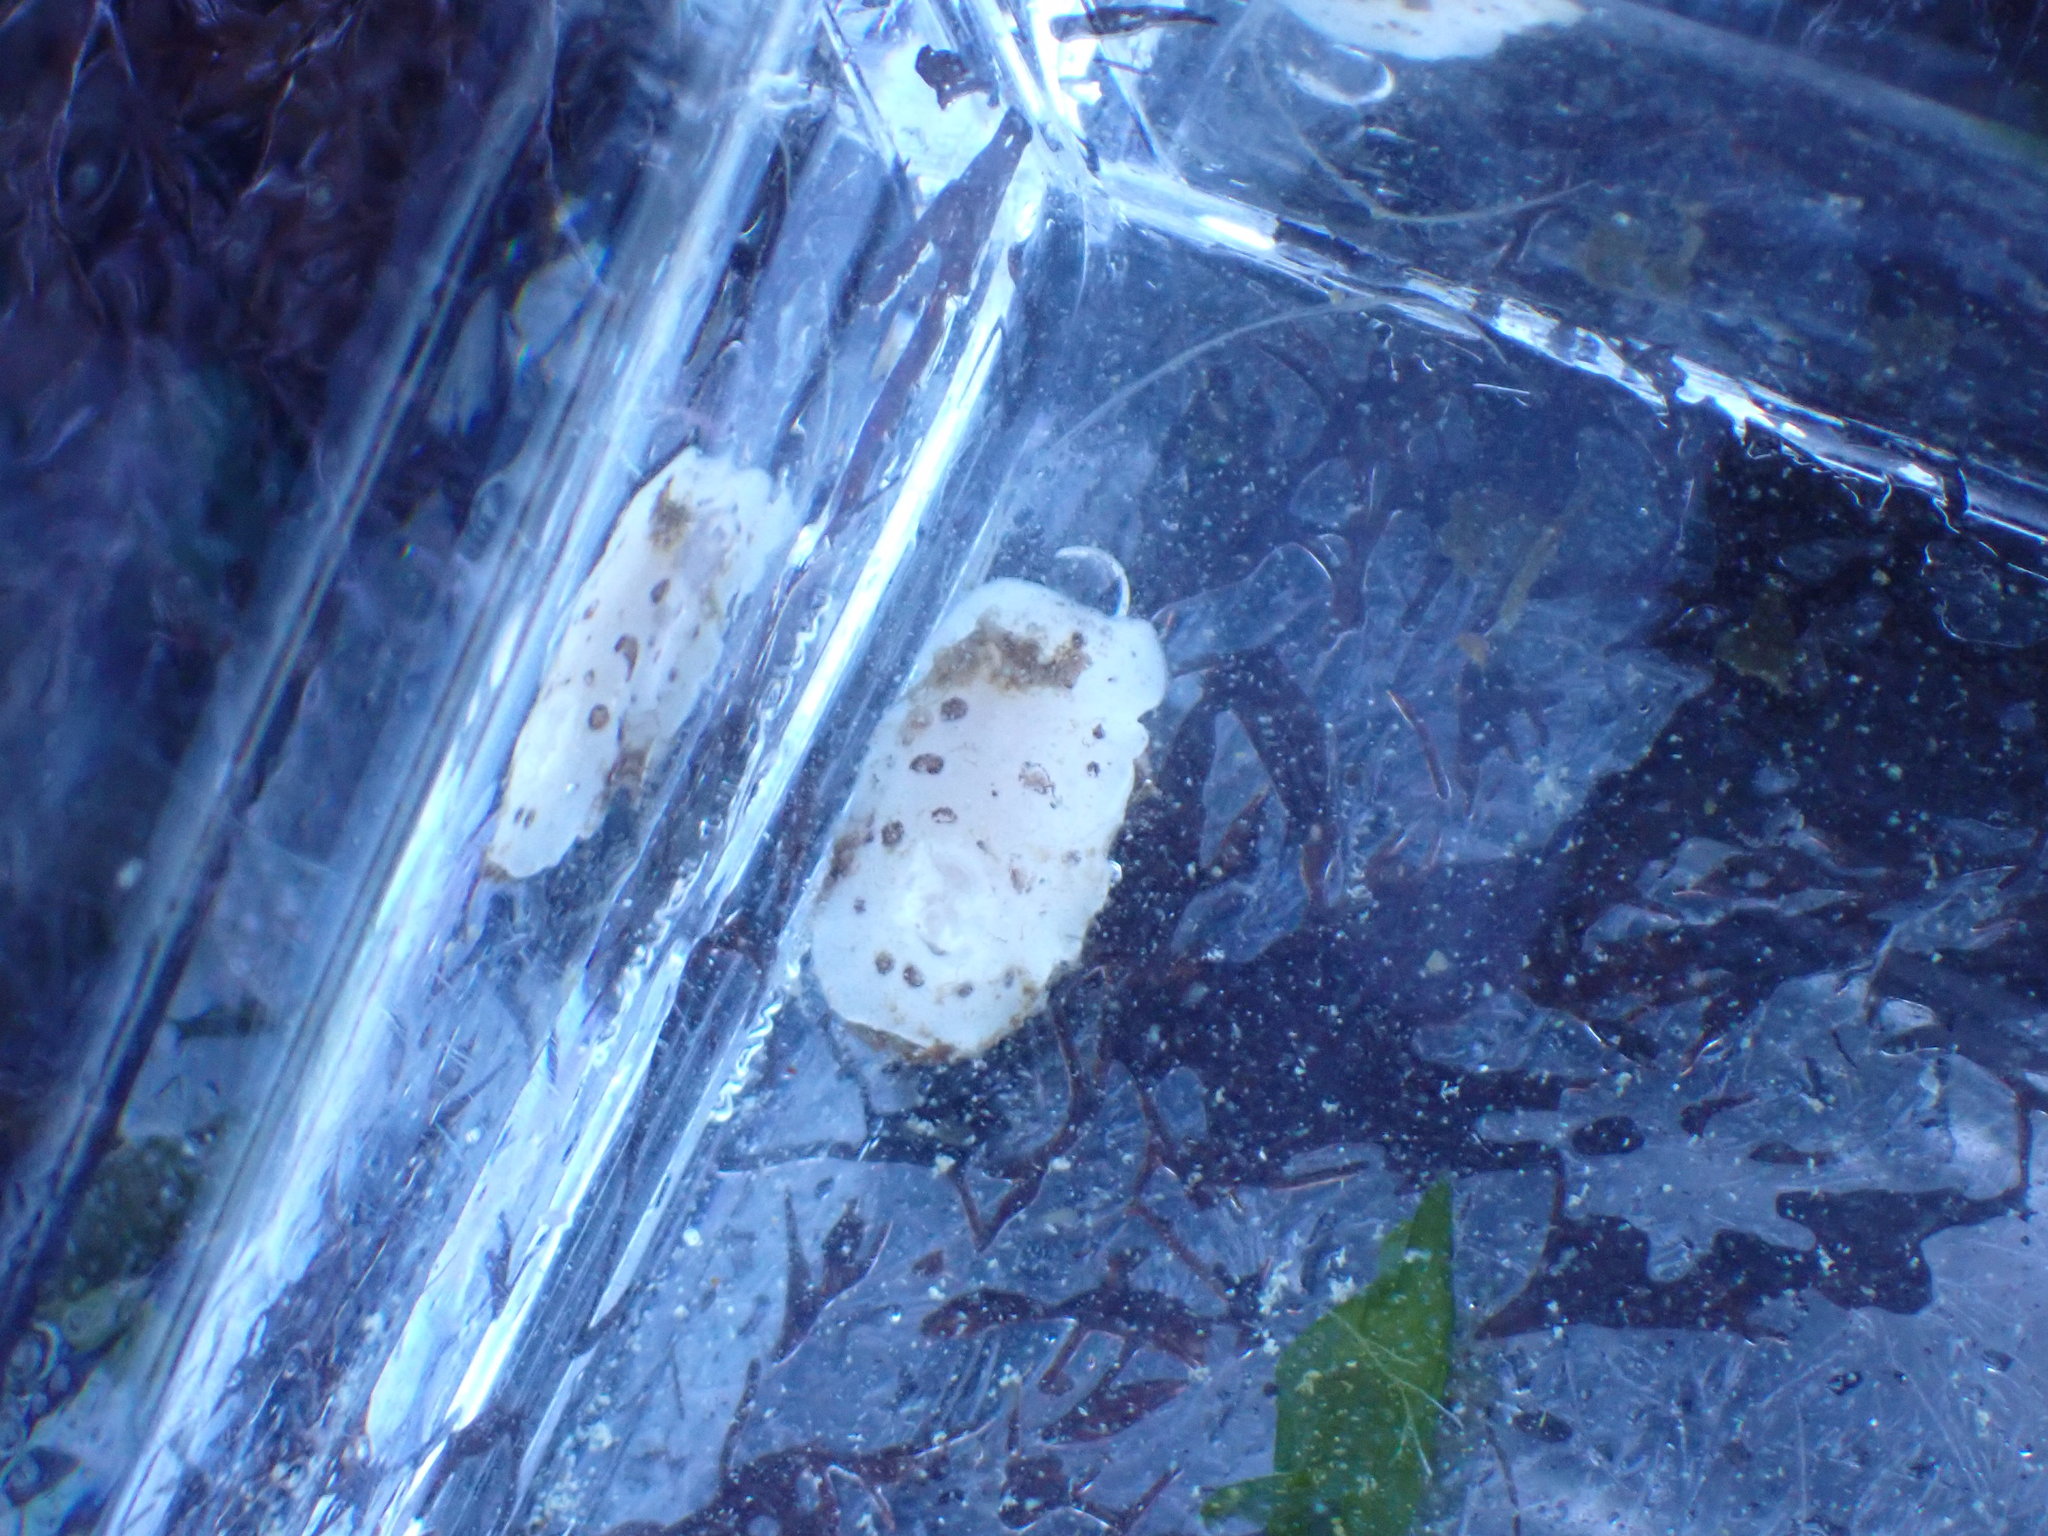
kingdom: Animalia
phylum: Mollusca
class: Gastropoda
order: Nudibranchia
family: Discodorididae
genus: Diaulula
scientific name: Diaulula odonoghuei
